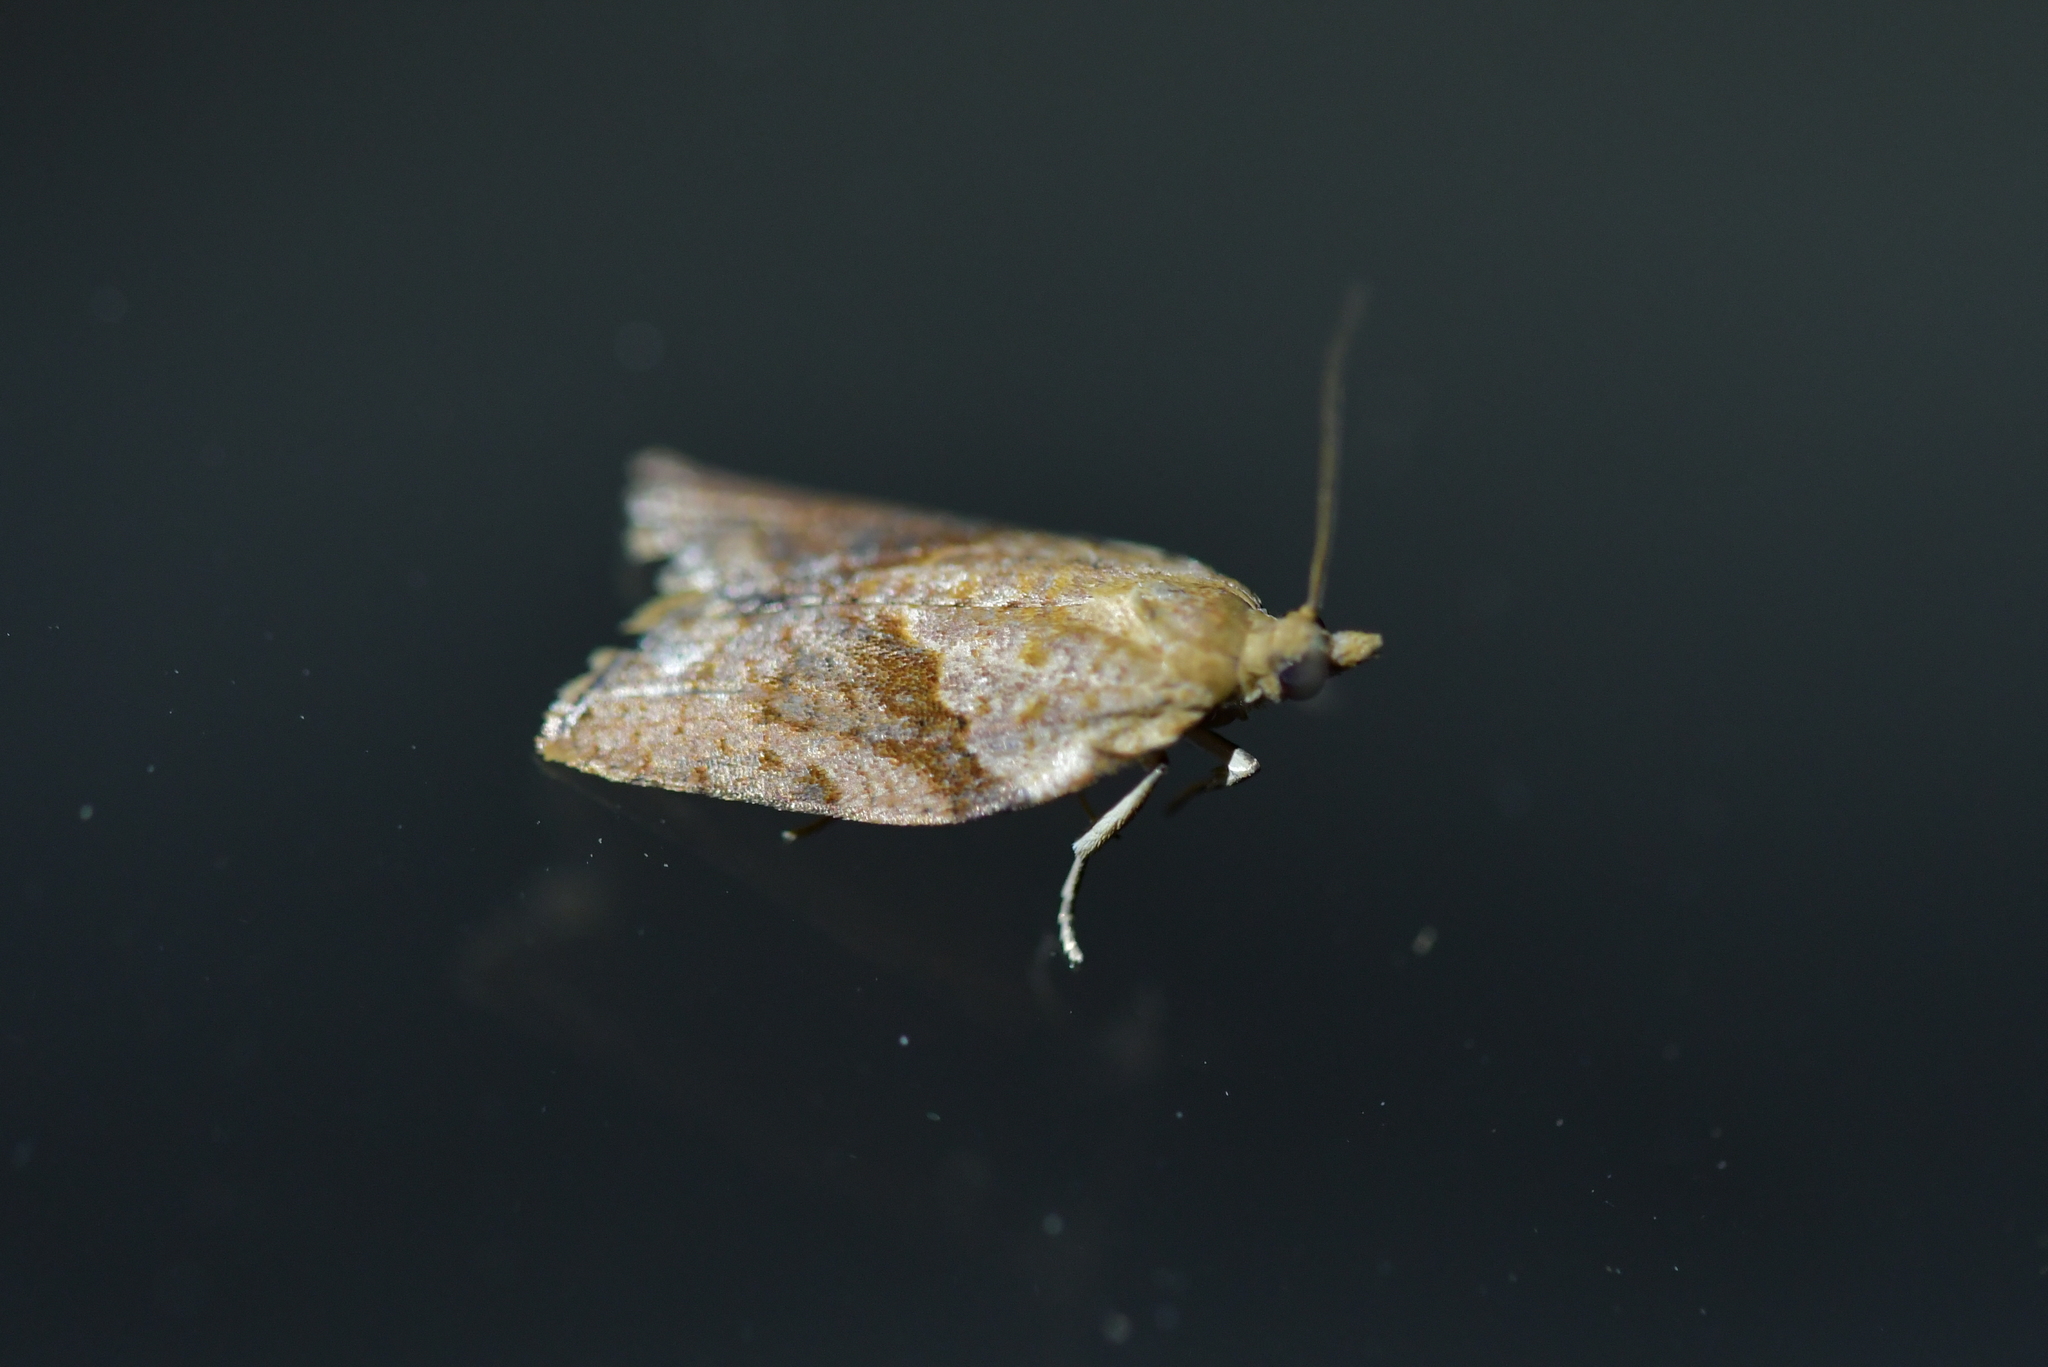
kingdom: Animalia
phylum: Arthropoda
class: Insecta
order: Lepidoptera
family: Tortricidae
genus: Epiphyas
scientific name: Epiphyas postvittana
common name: Light brown apple moth
